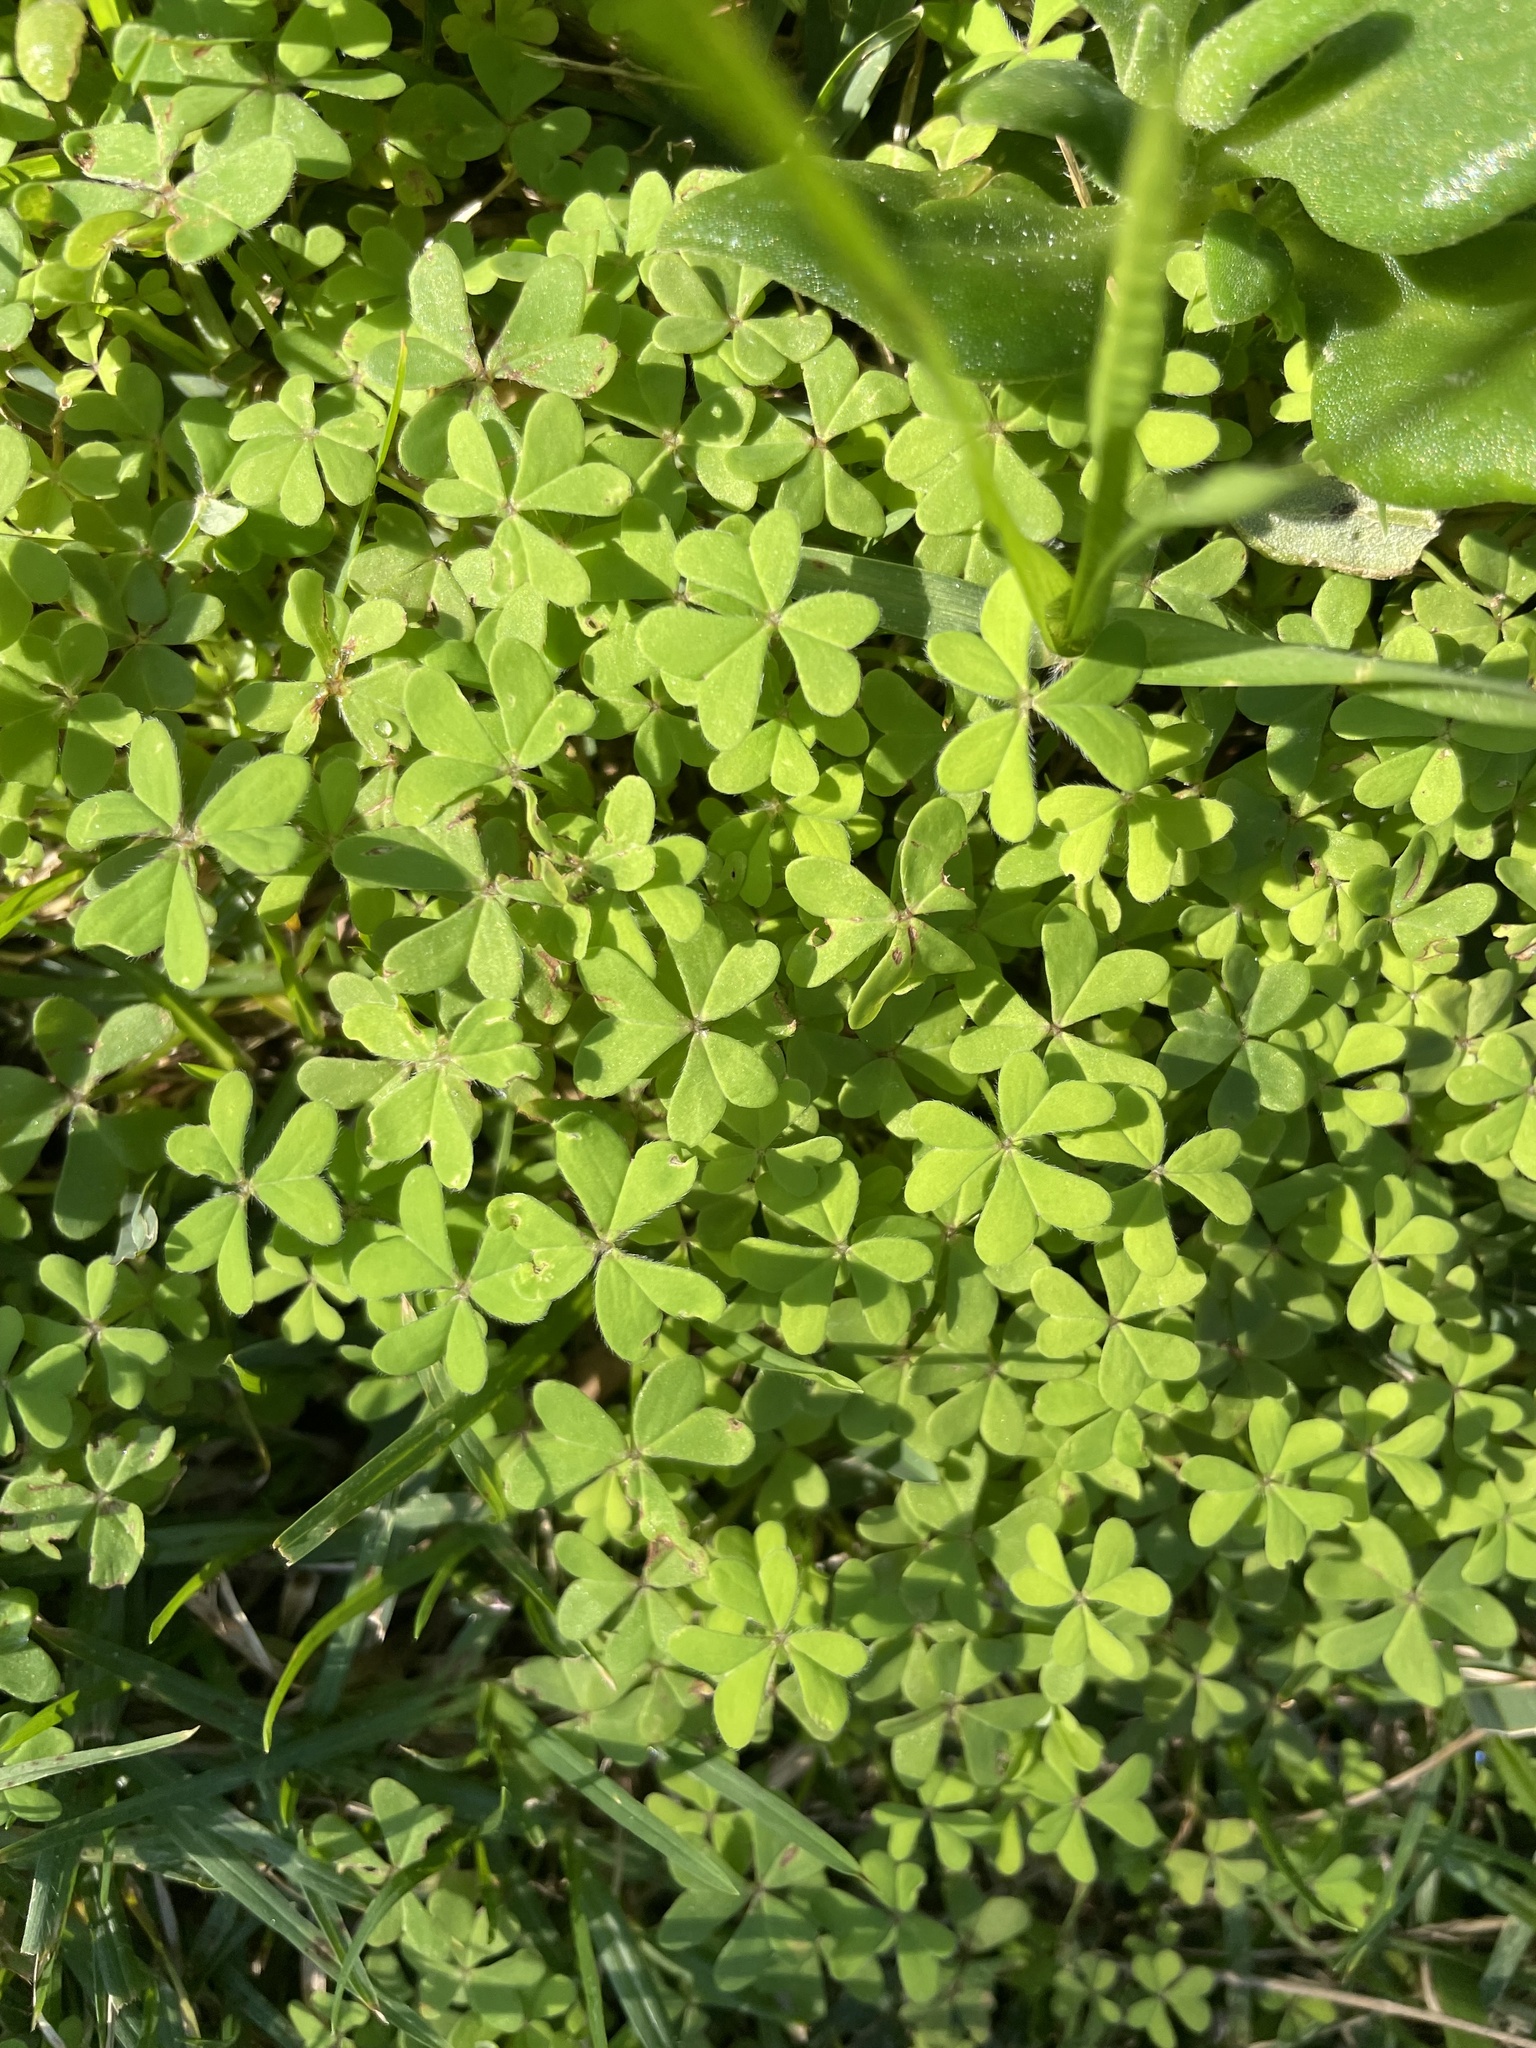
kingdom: Plantae
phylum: Tracheophyta
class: Magnoliopsida
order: Oxalidales
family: Oxalidaceae
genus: Oxalis
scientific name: Oxalis pes-caprae
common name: Bermuda-buttercup
